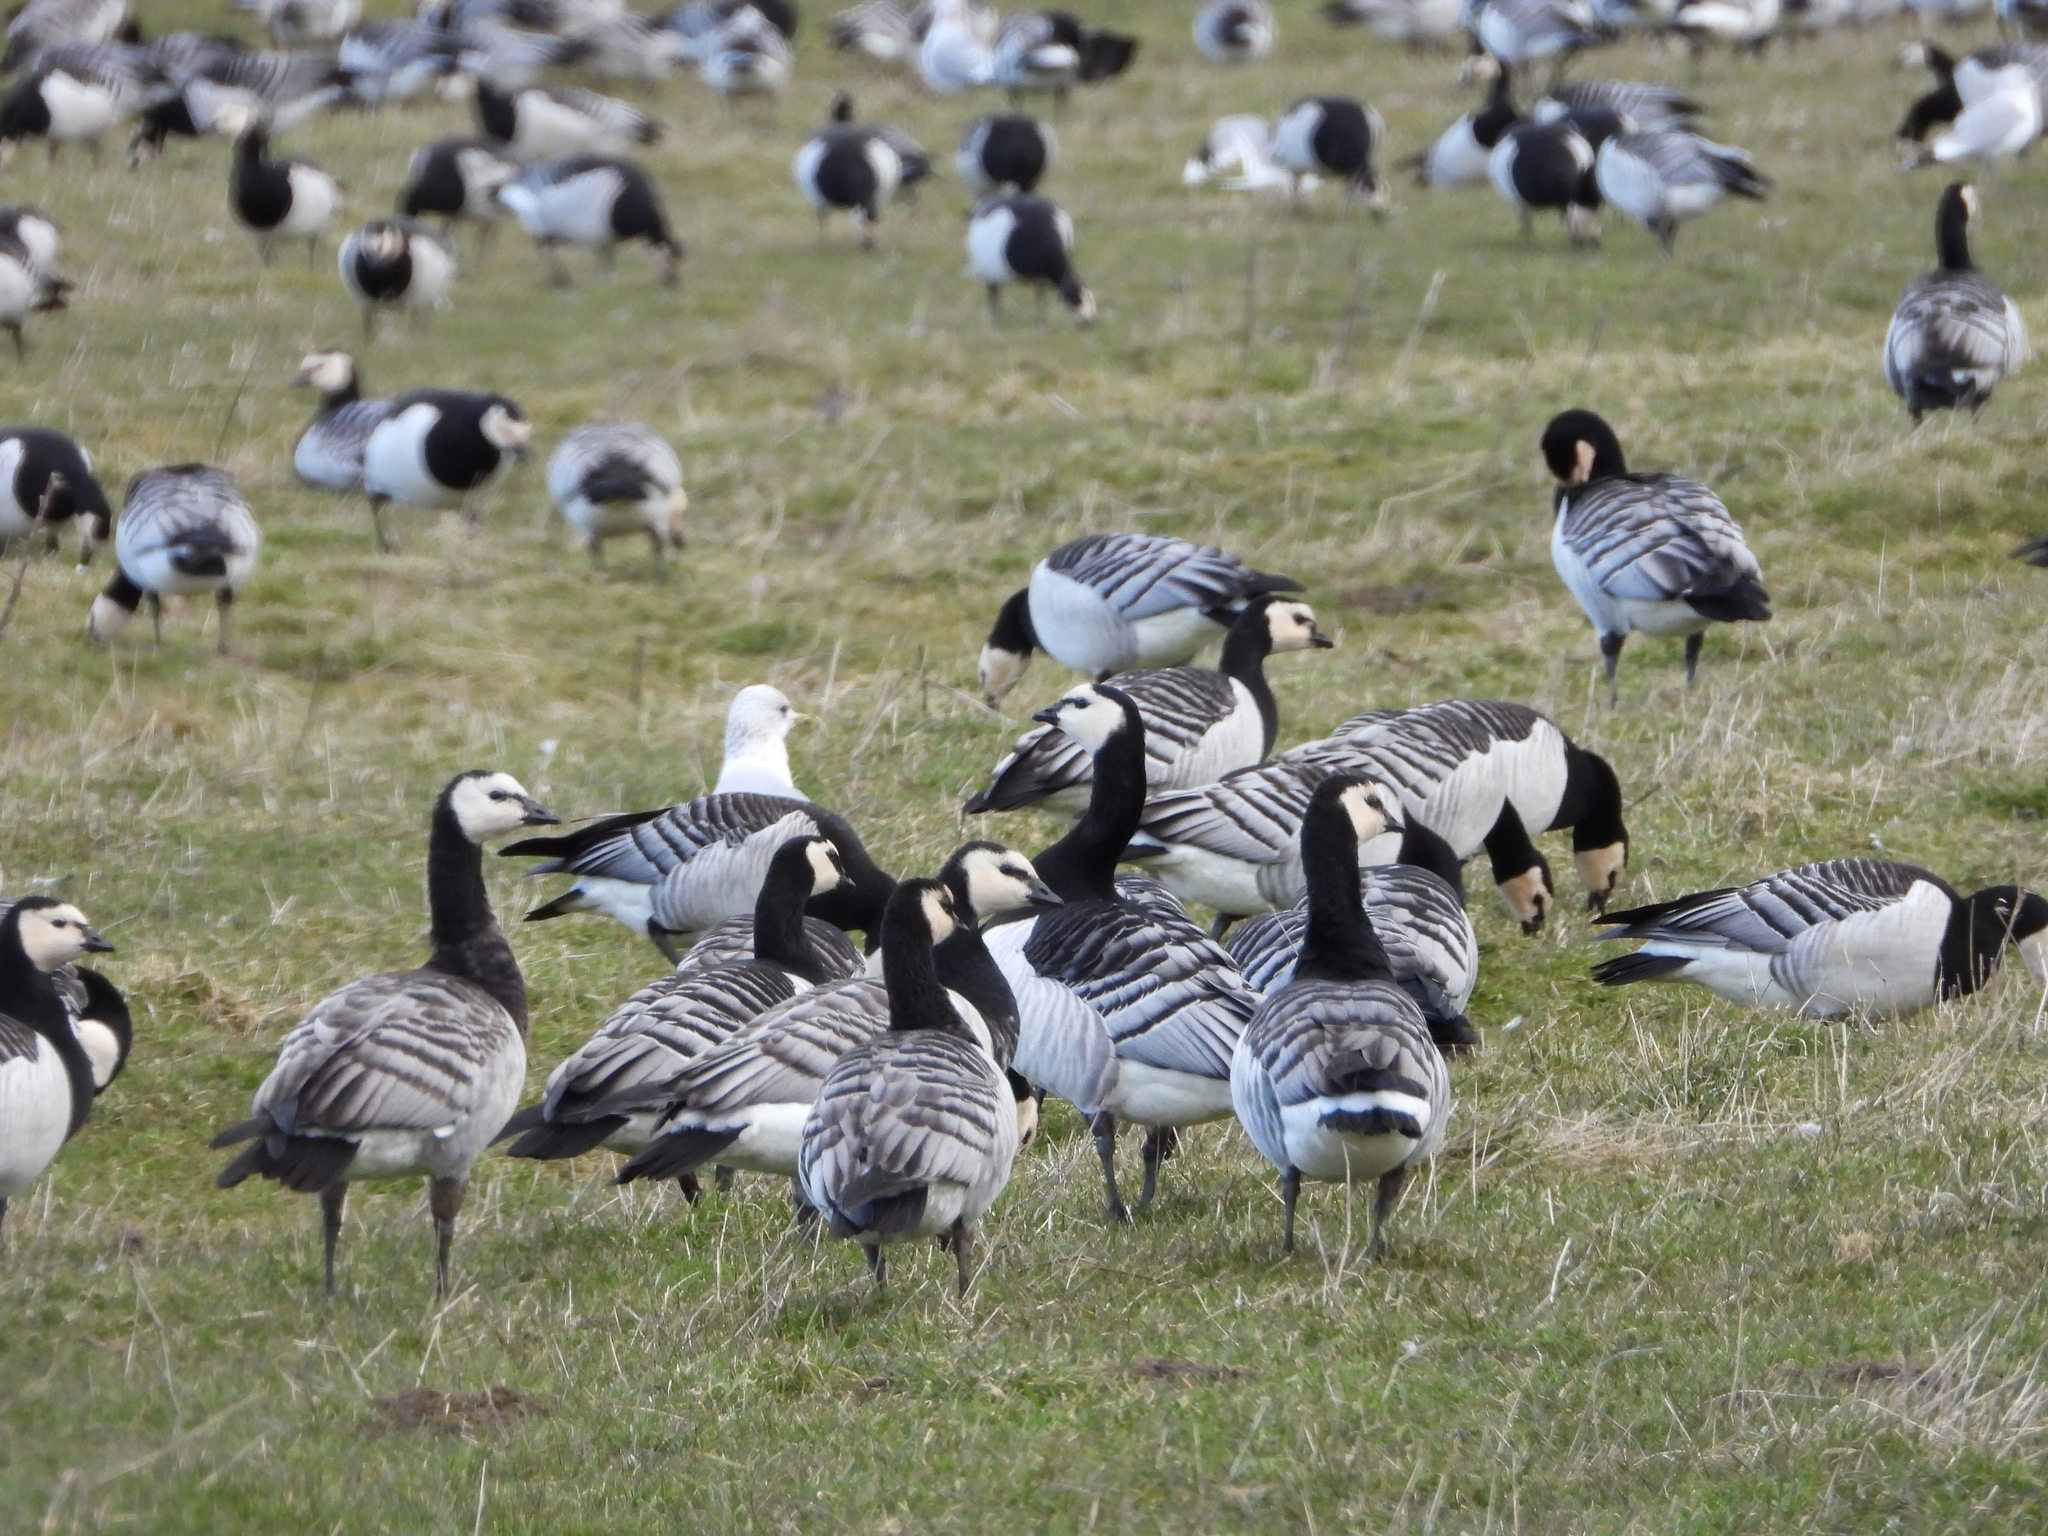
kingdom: Animalia
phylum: Chordata
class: Aves
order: Anseriformes
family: Anatidae
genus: Branta
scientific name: Branta leucopsis
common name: Barnacle goose
